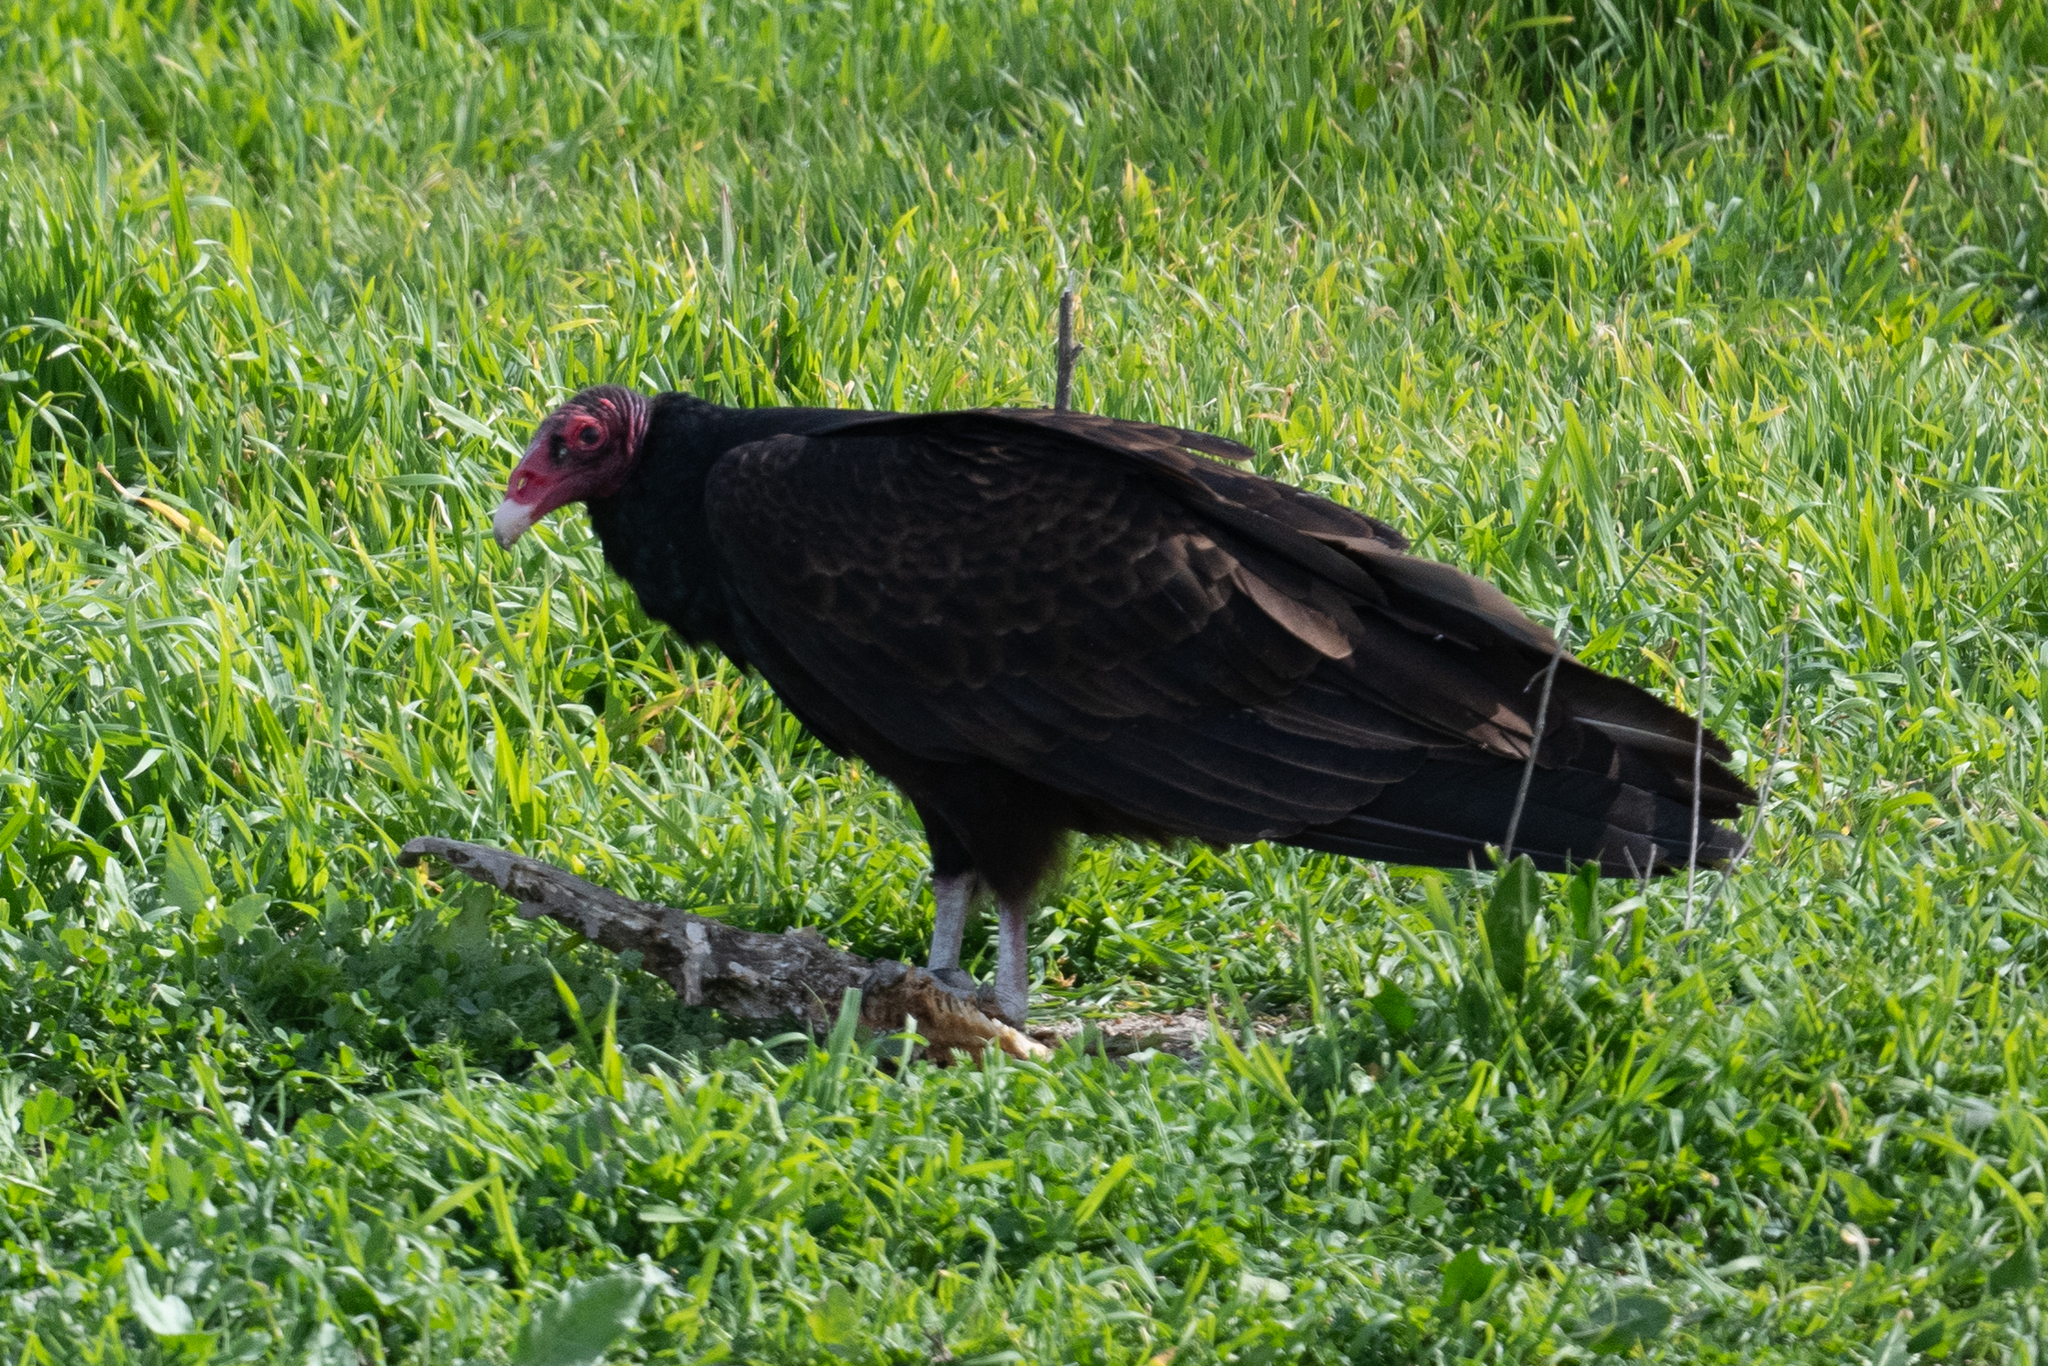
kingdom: Animalia
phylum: Chordata
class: Aves
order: Accipitriformes
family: Cathartidae
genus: Cathartes
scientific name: Cathartes aura
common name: Turkey vulture
